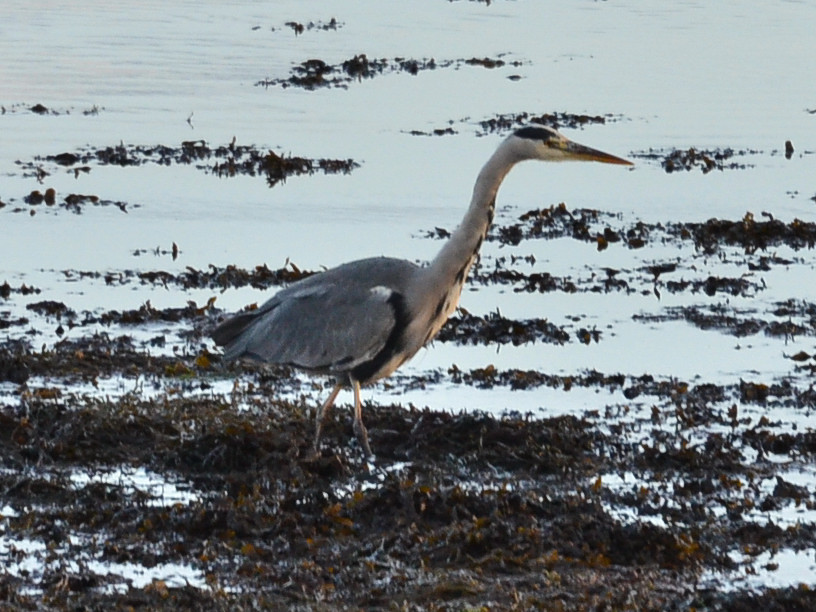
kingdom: Animalia
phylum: Chordata
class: Aves
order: Pelecaniformes
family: Ardeidae
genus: Ardea
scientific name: Ardea cinerea
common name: Grey heron
